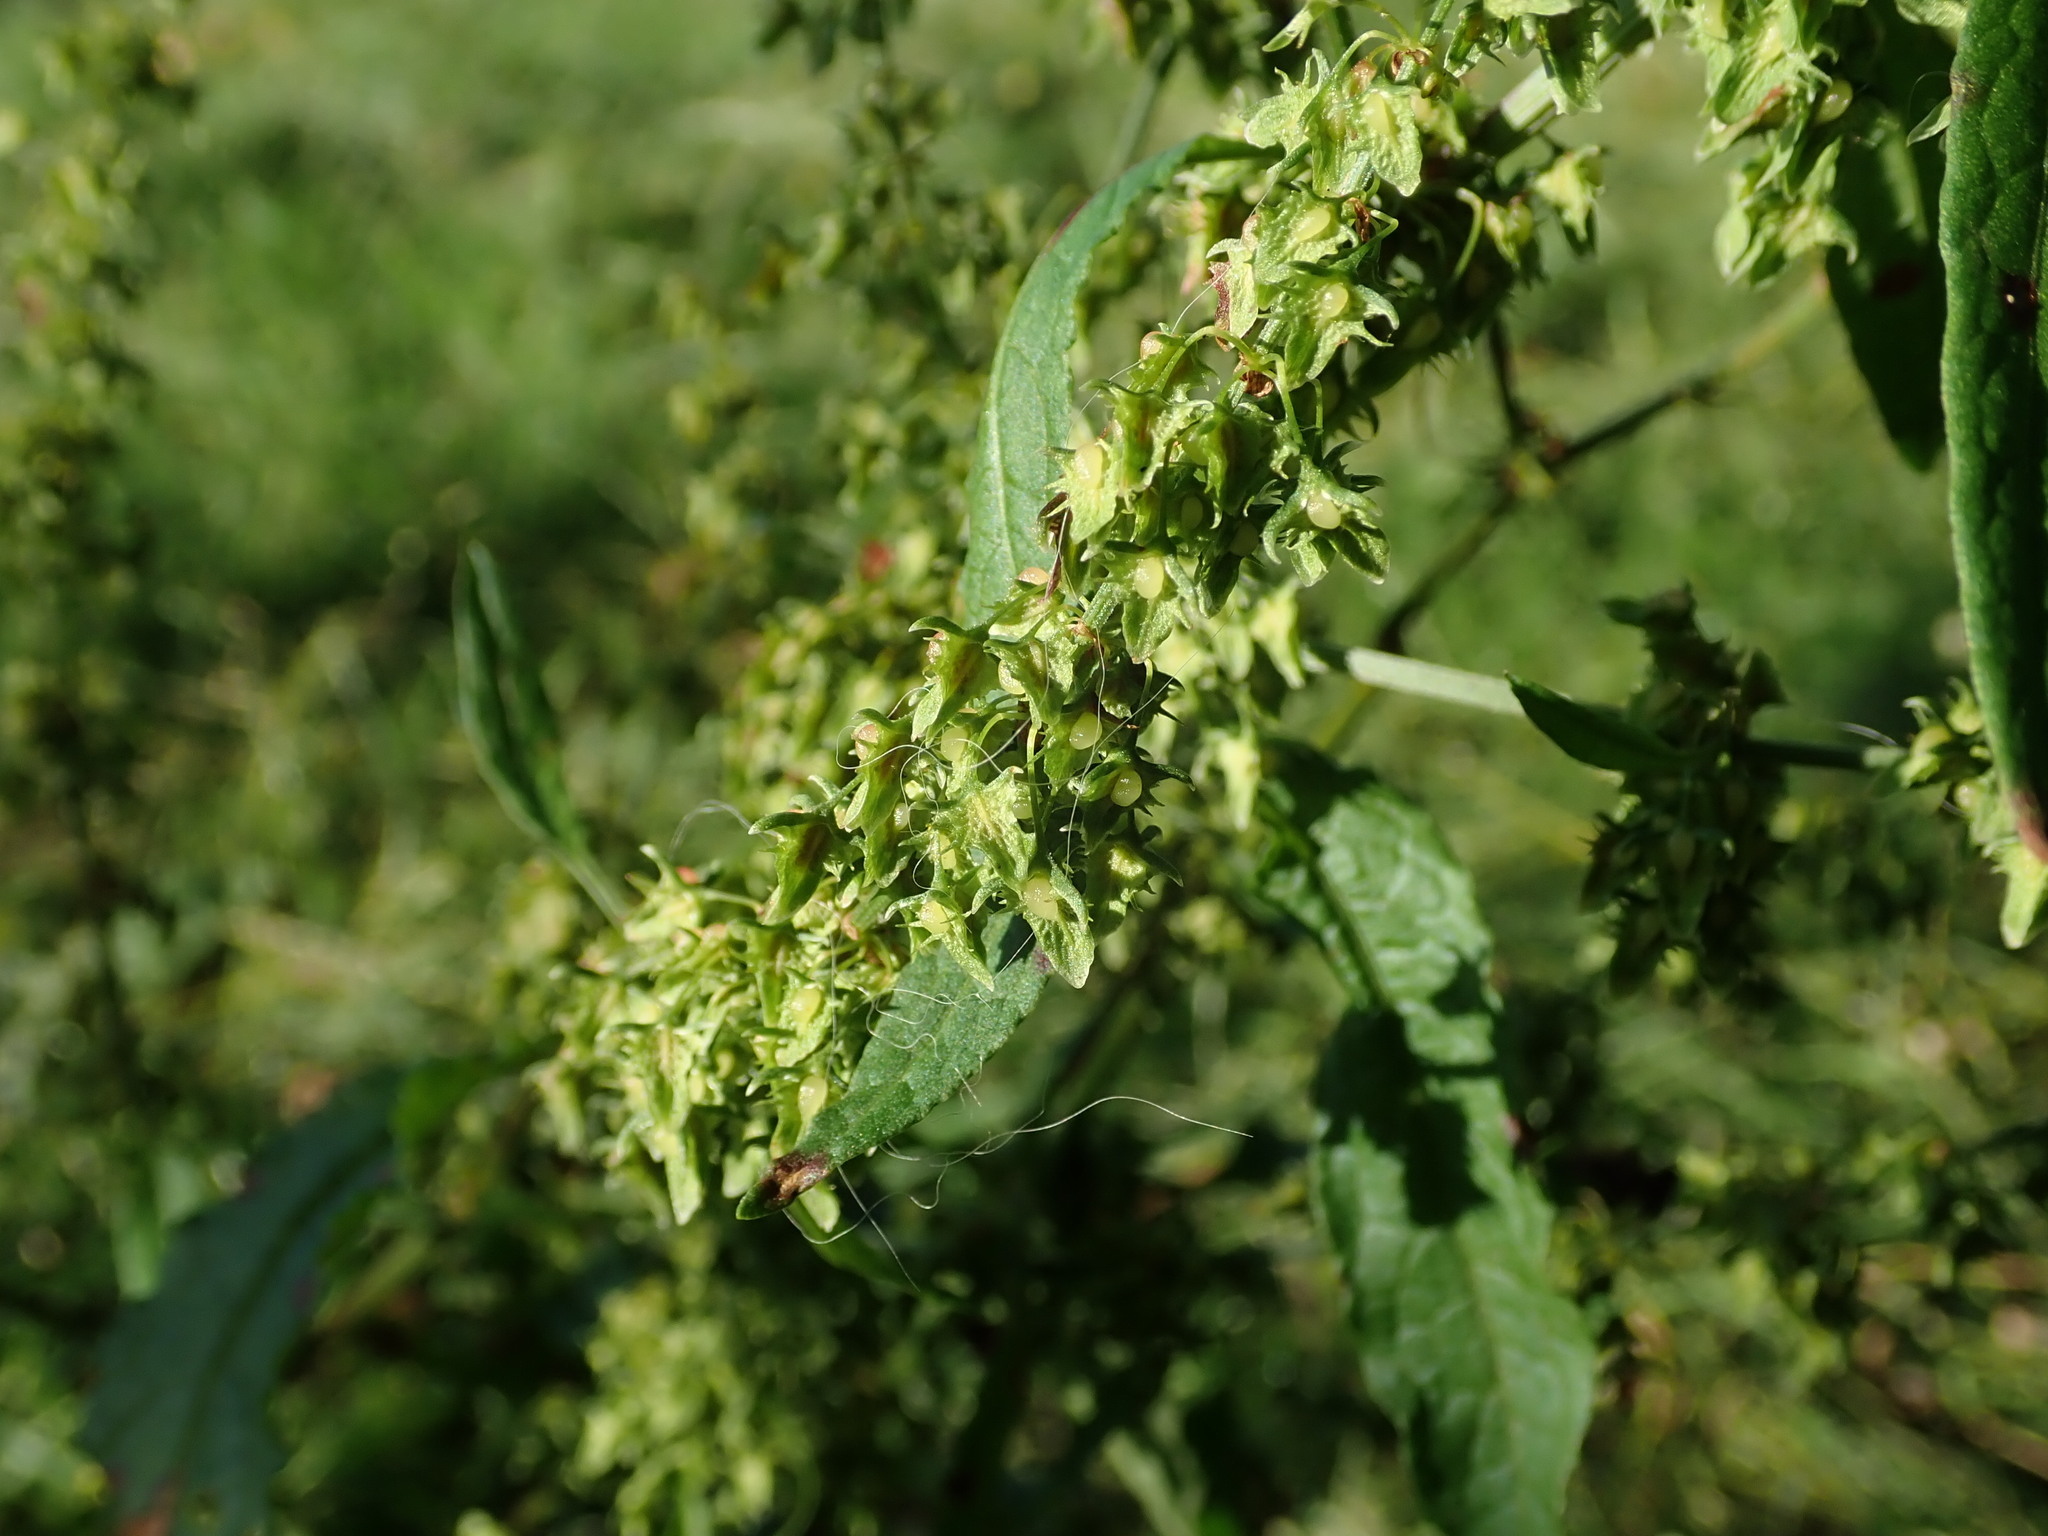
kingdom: Plantae
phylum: Tracheophyta
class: Magnoliopsida
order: Caryophyllales
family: Polygonaceae
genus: Rumex
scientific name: Rumex obtusifolius
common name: Bitter dock
